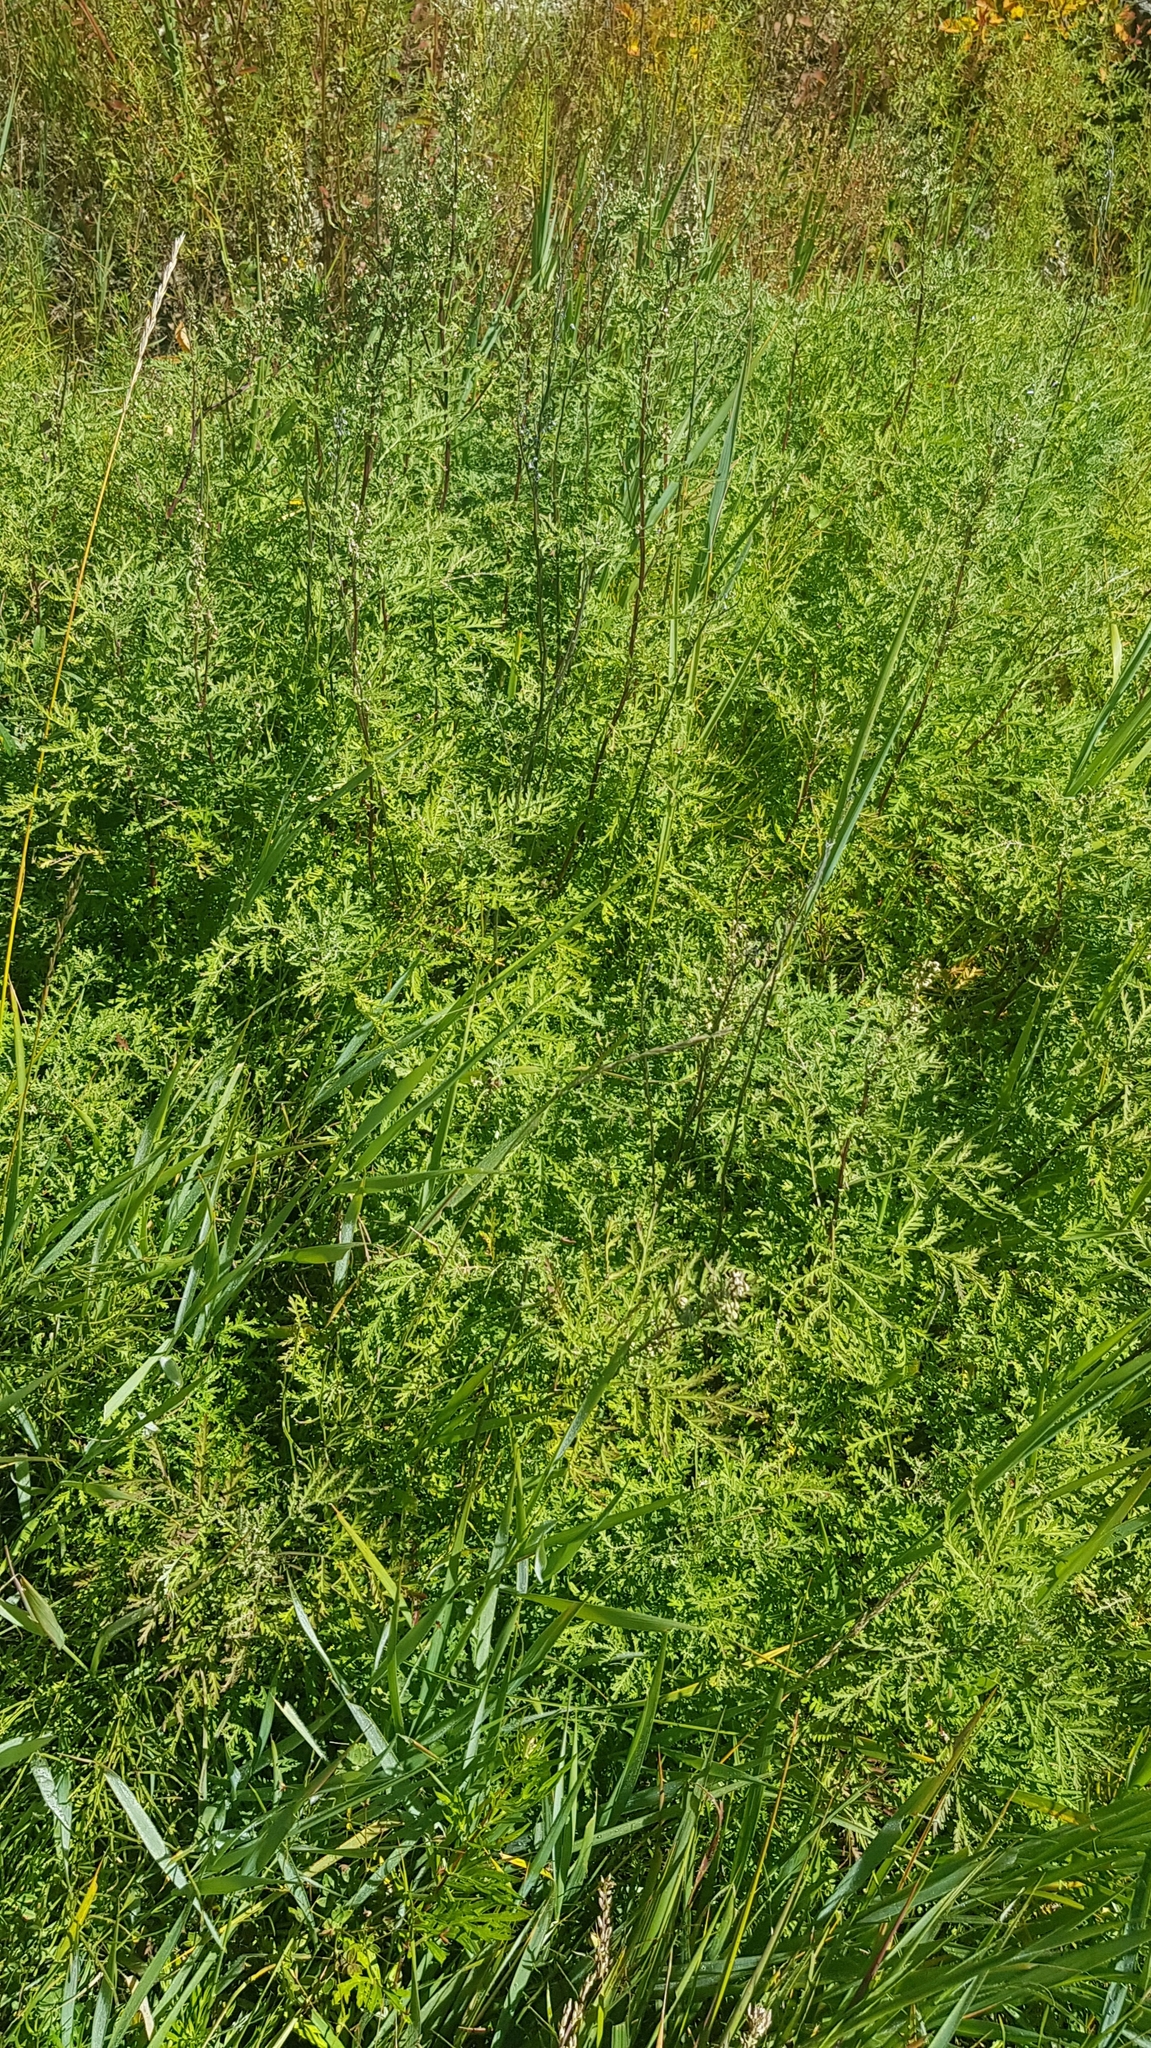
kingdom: Plantae
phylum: Tracheophyta
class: Magnoliopsida
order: Asterales
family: Asteraceae
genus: Artemisia
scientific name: Artemisia gmelinii
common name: Gmelin's wormwood
